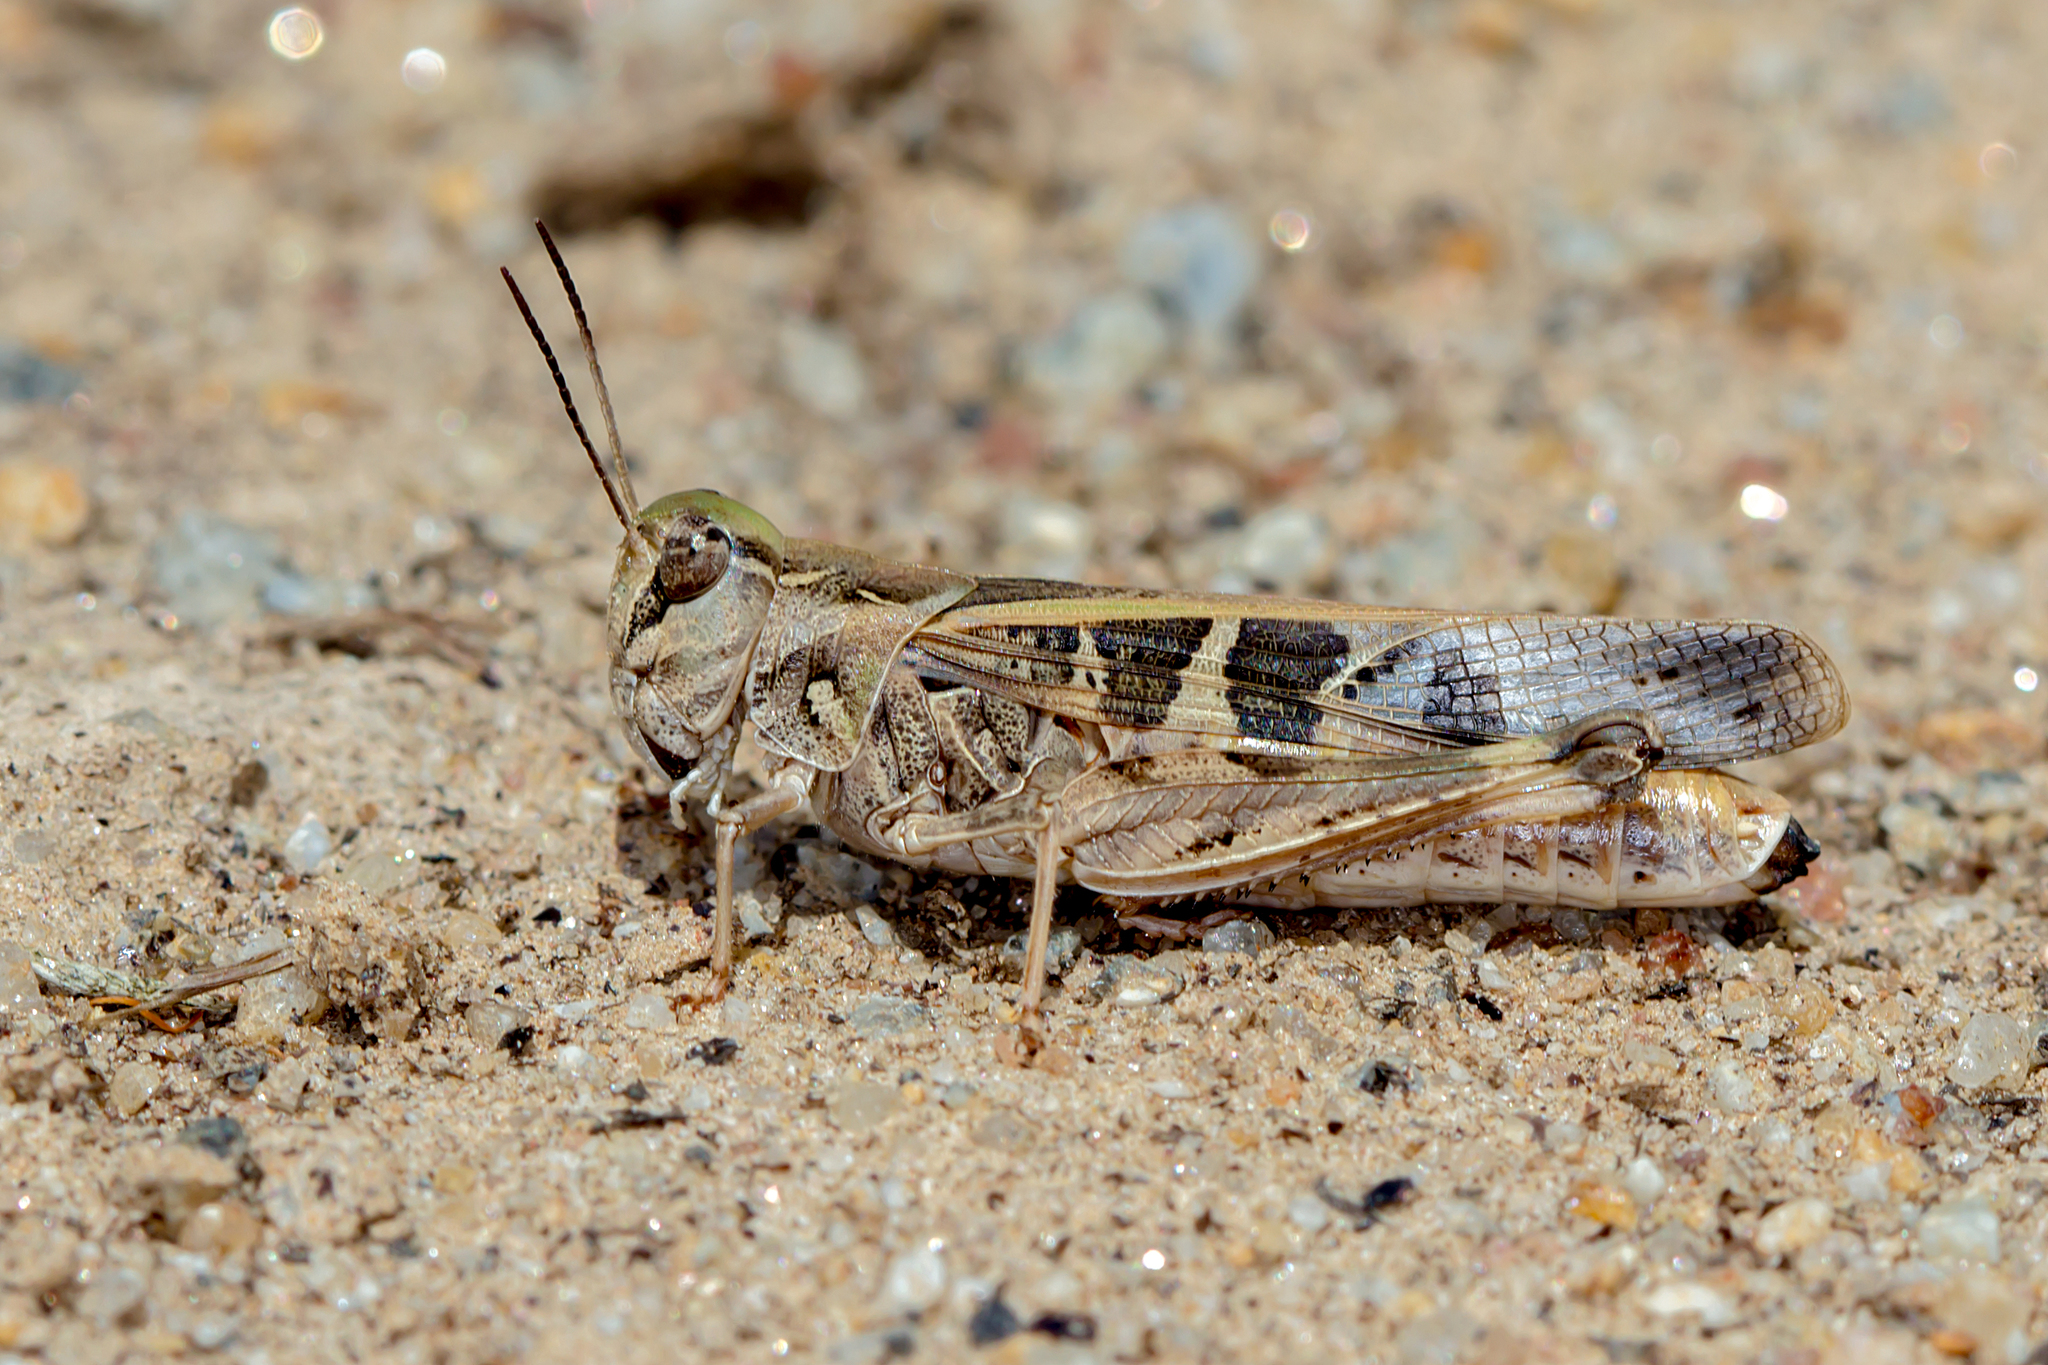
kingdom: Animalia
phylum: Arthropoda
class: Insecta
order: Orthoptera
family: Acrididae
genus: Oedaleus
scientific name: Oedaleus australis
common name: Eastern oedaleus
